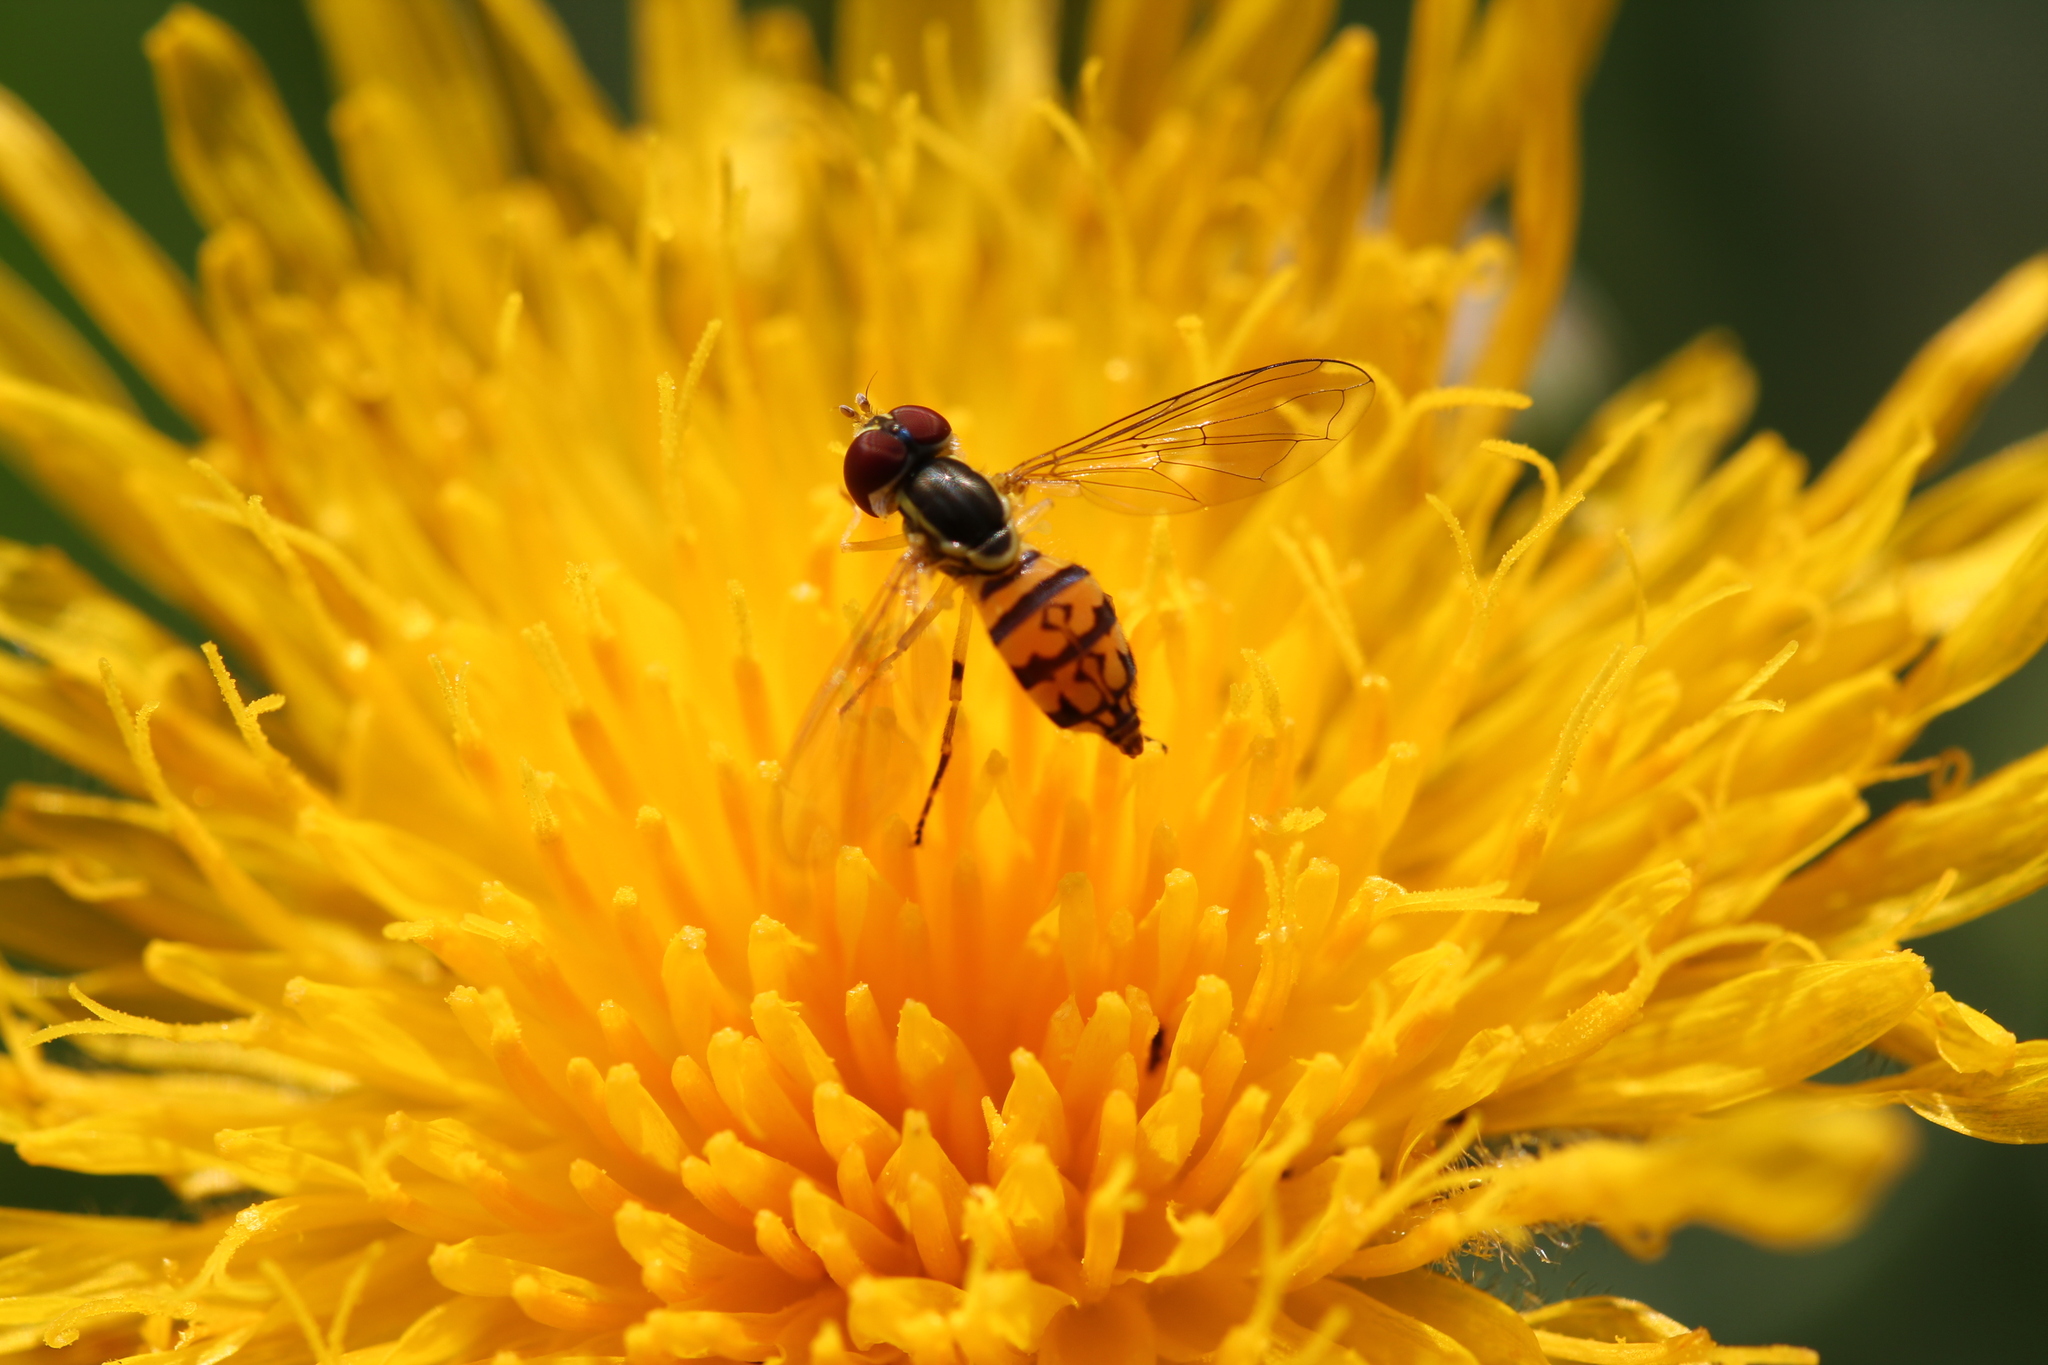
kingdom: Animalia
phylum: Arthropoda
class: Insecta
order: Diptera
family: Syrphidae
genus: Toxomerus
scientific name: Toxomerus geminatus
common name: Eastern calligrapher
